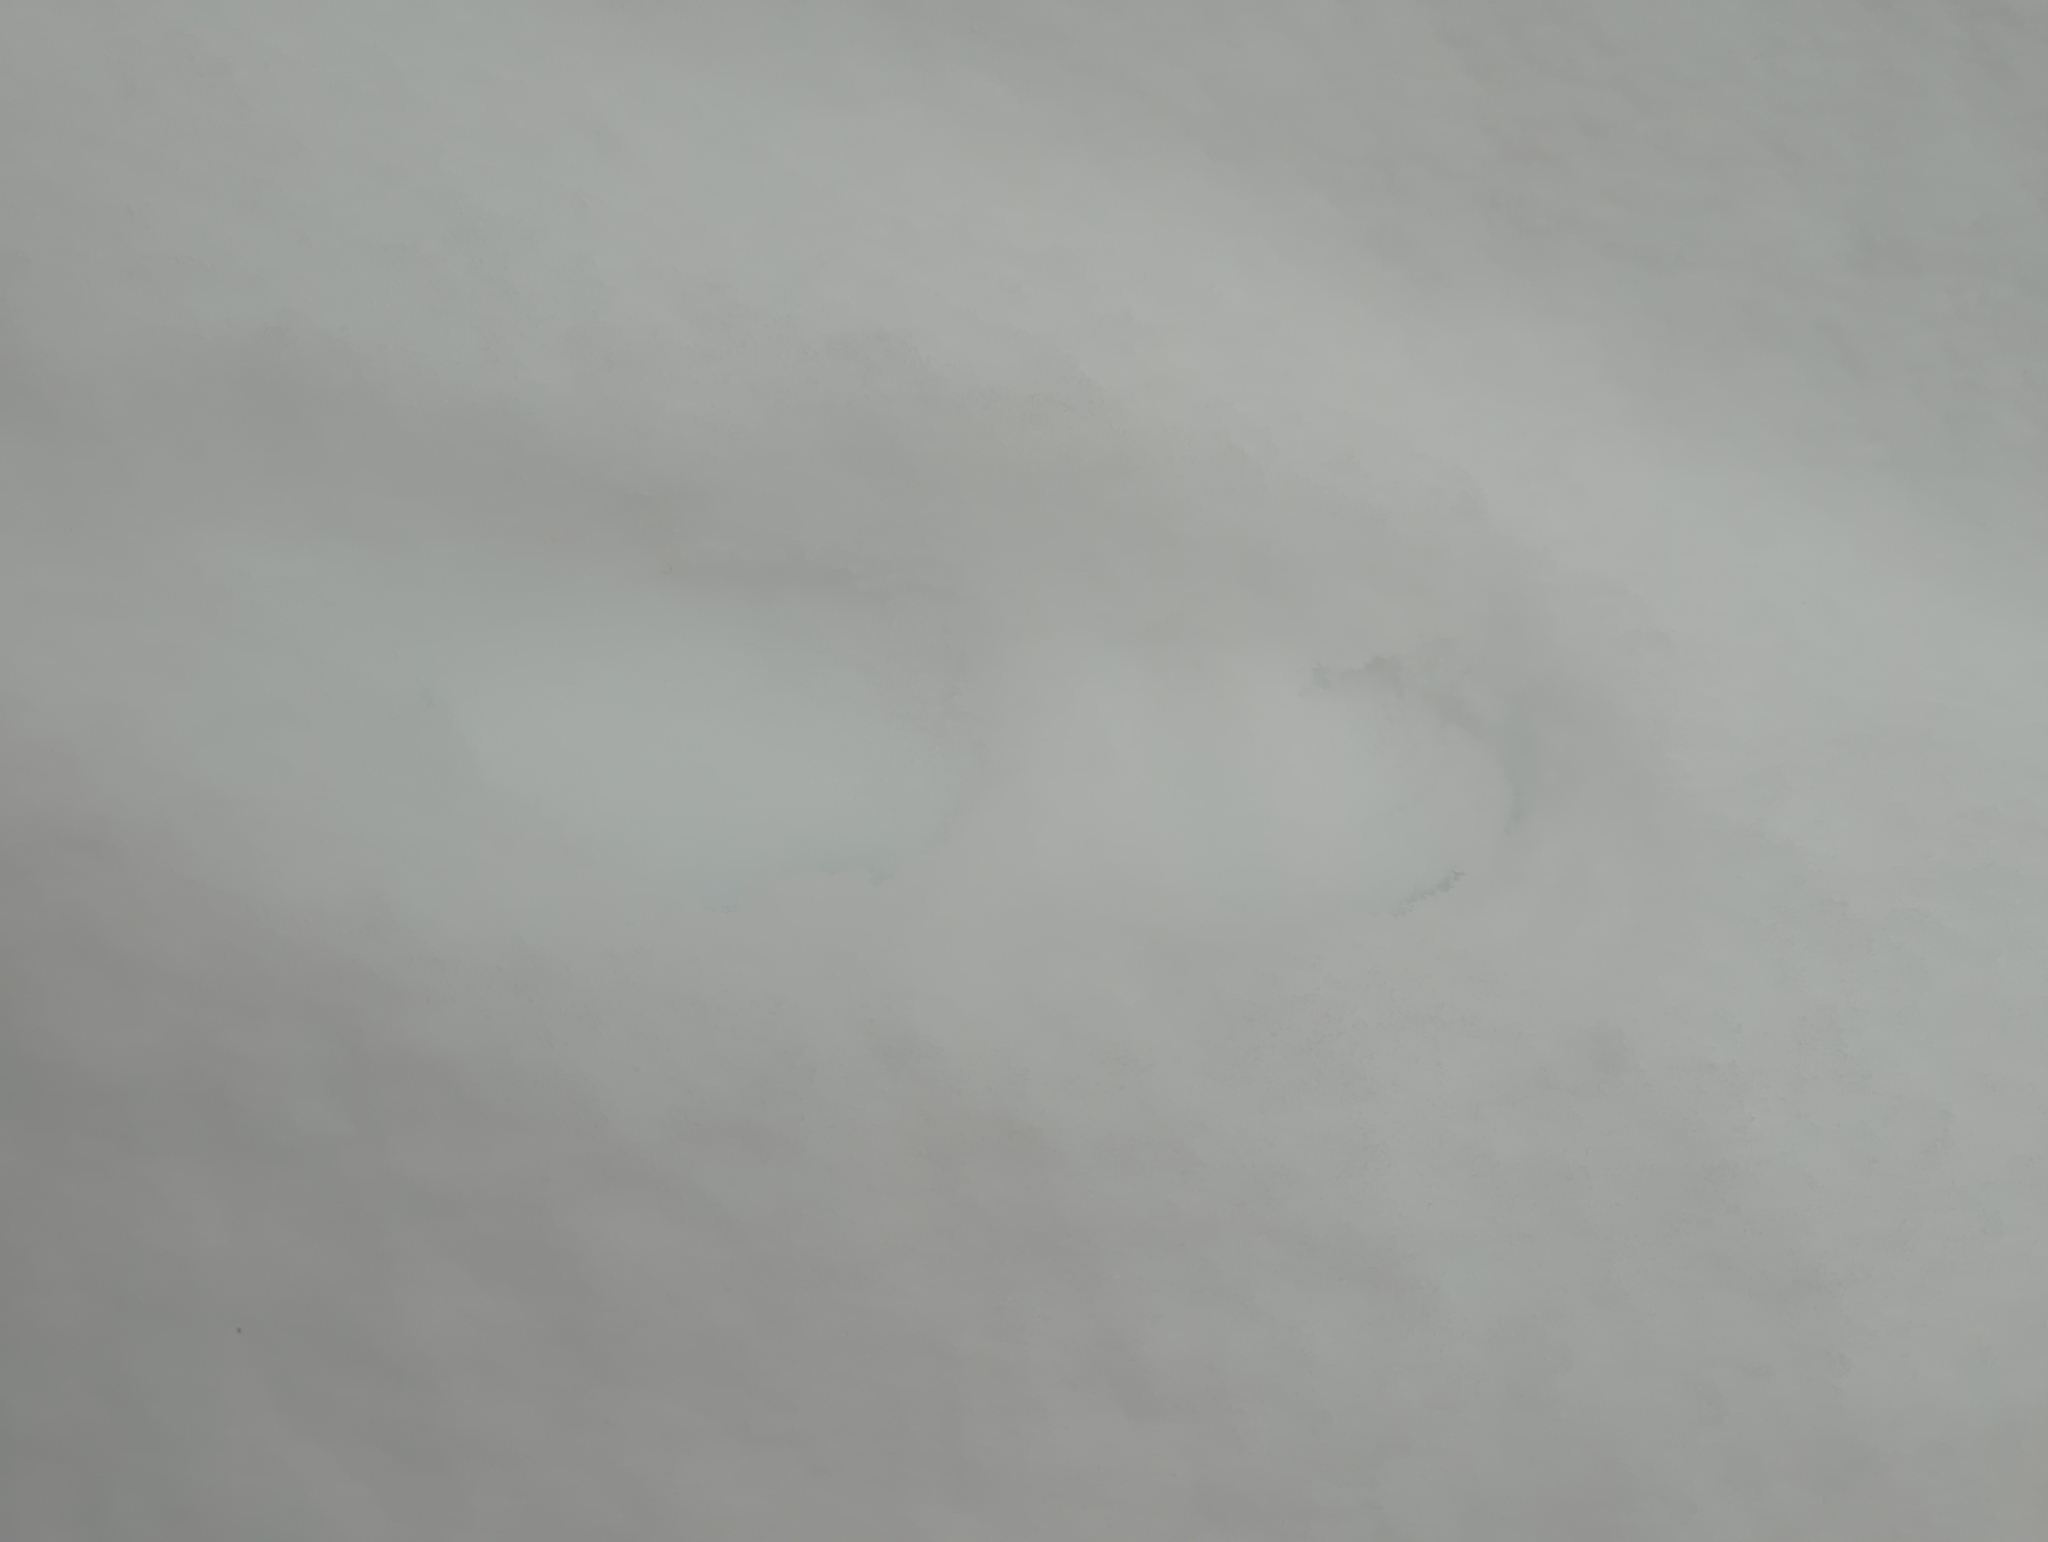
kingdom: Animalia
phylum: Chordata
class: Mammalia
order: Carnivora
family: Mustelidae
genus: Martes
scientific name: Martes americana
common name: American marten
